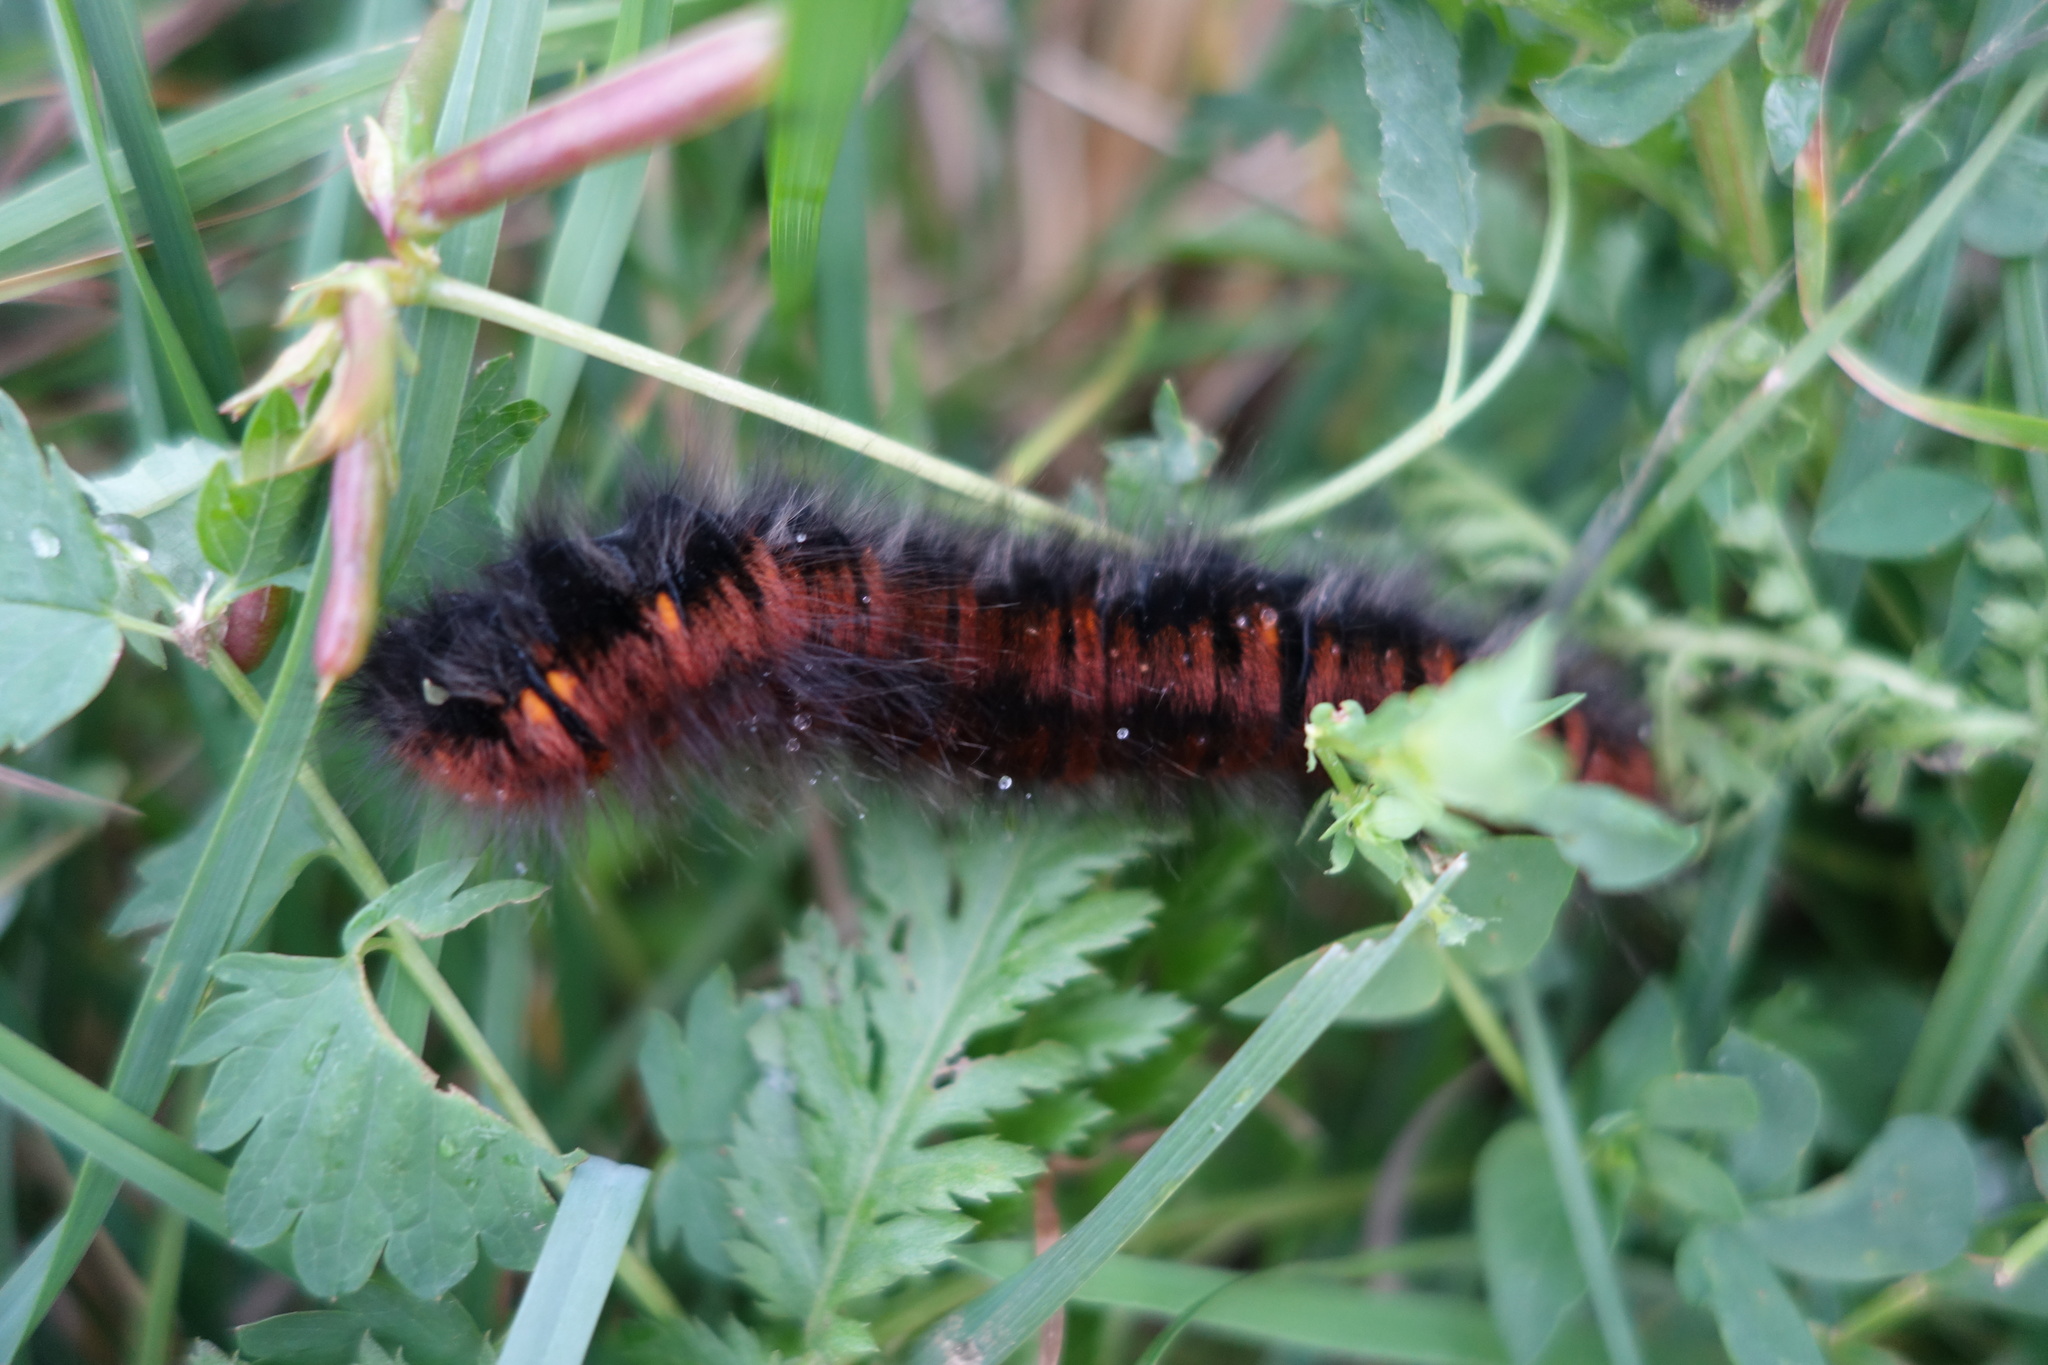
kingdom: Animalia
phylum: Arthropoda
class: Insecta
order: Lepidoptera
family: Lasiocampidae
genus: Macrothylacia
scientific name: Macrothylacia rubi
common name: Fox moth
